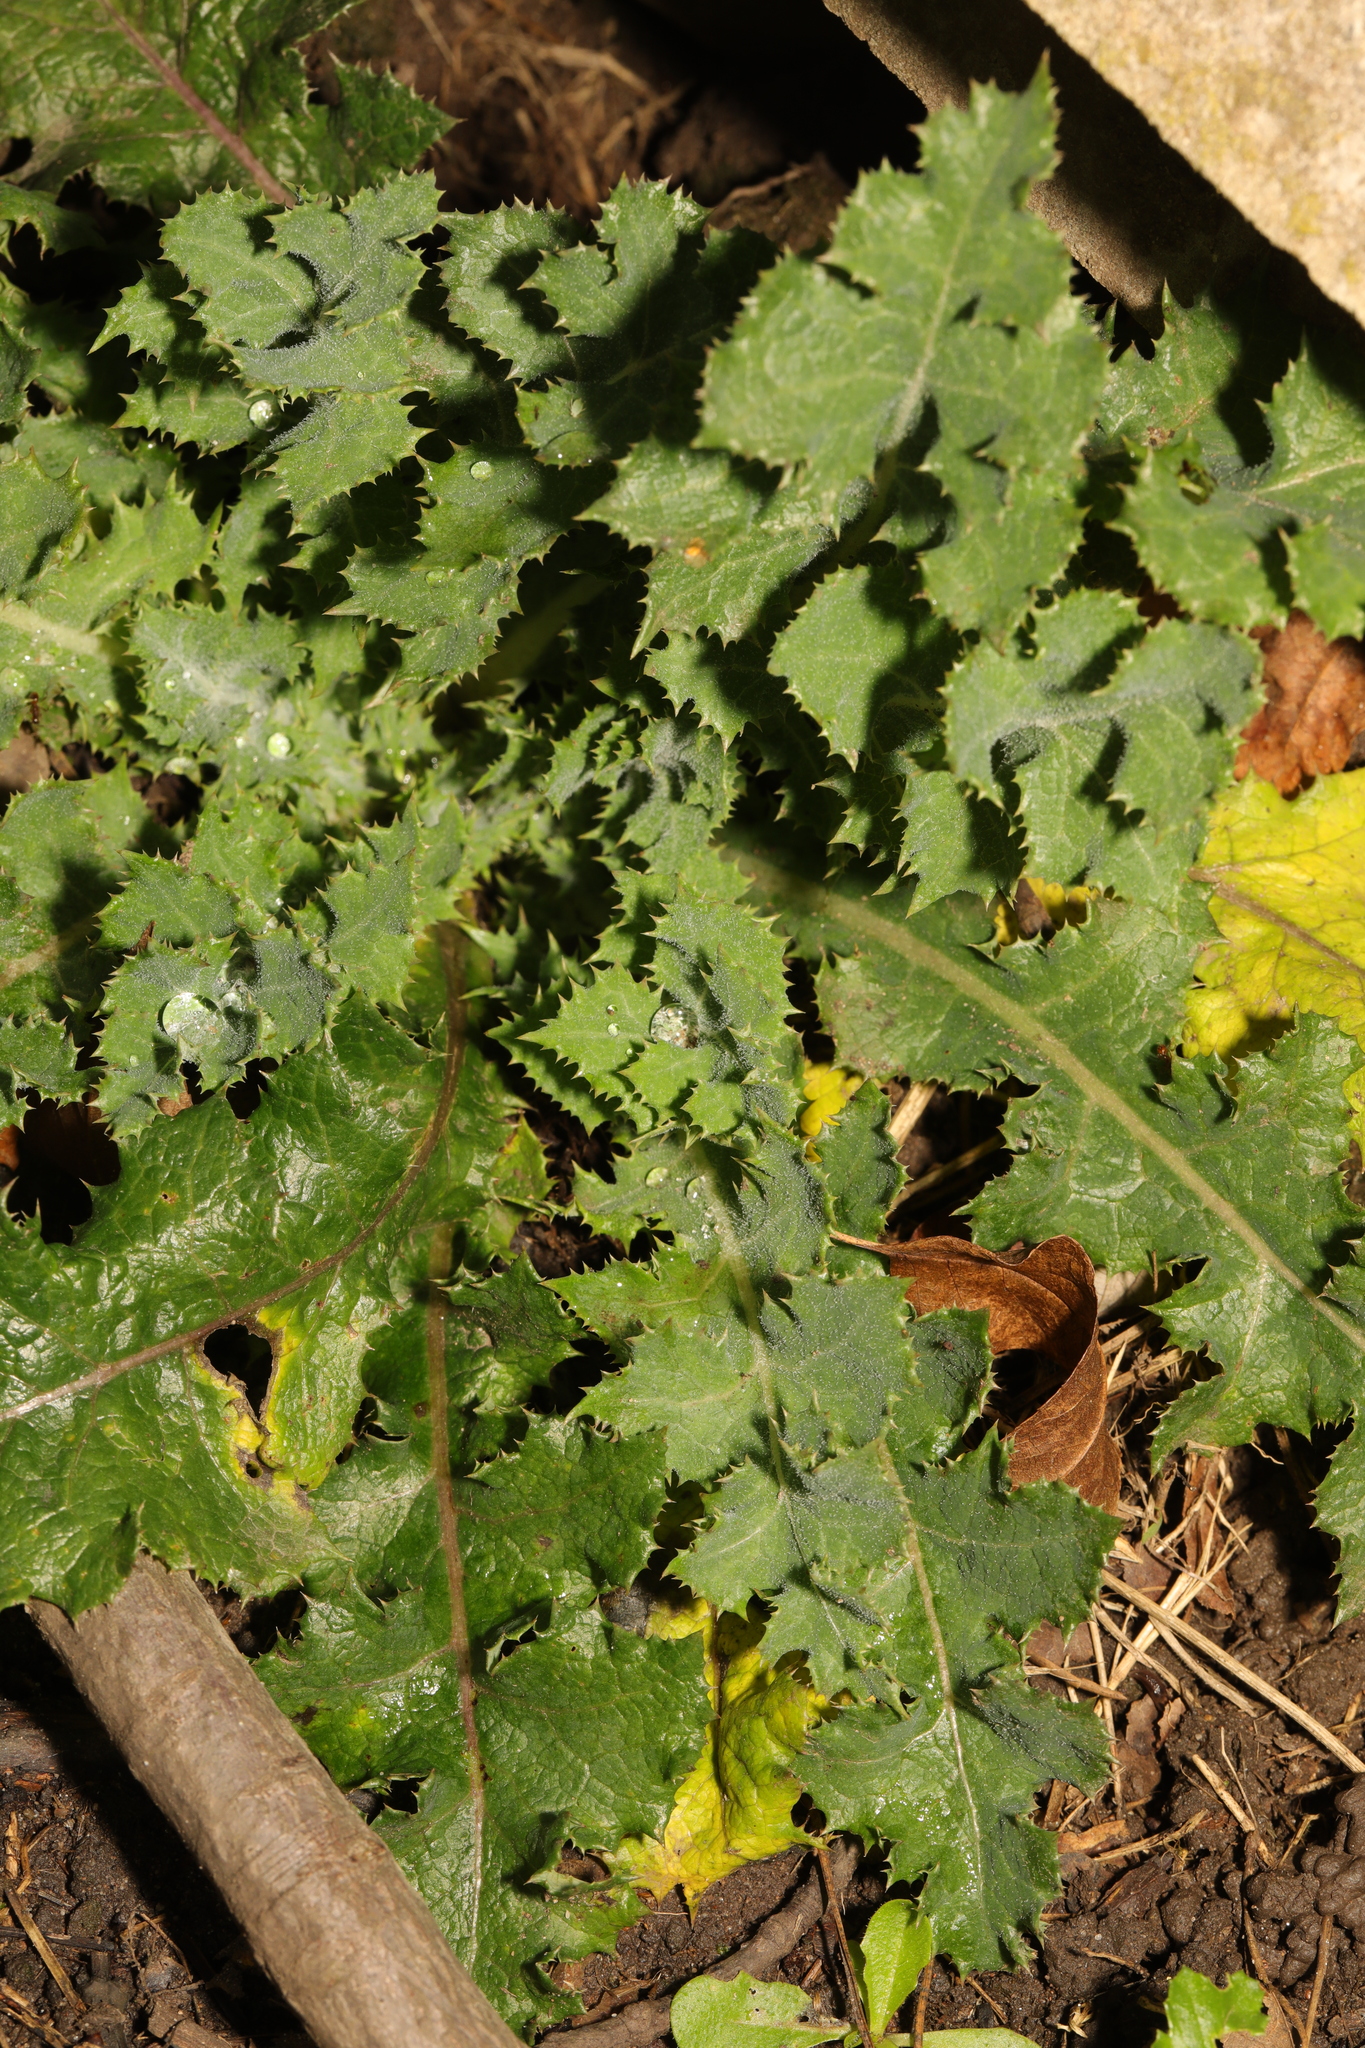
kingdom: Plantae
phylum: Tracheophyta
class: Magnoliopsida
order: Asterales
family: Asteraceae
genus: Sonchus
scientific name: Sonchus asper
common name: Prickly sow-thistle
